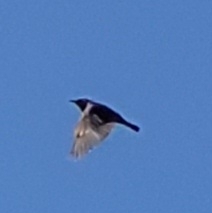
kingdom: Animalia
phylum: Chordata
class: Aves
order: Passeriformes
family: Muscicapidae
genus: Saxicola
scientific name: Saxicola rubicola
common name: European stonechat
